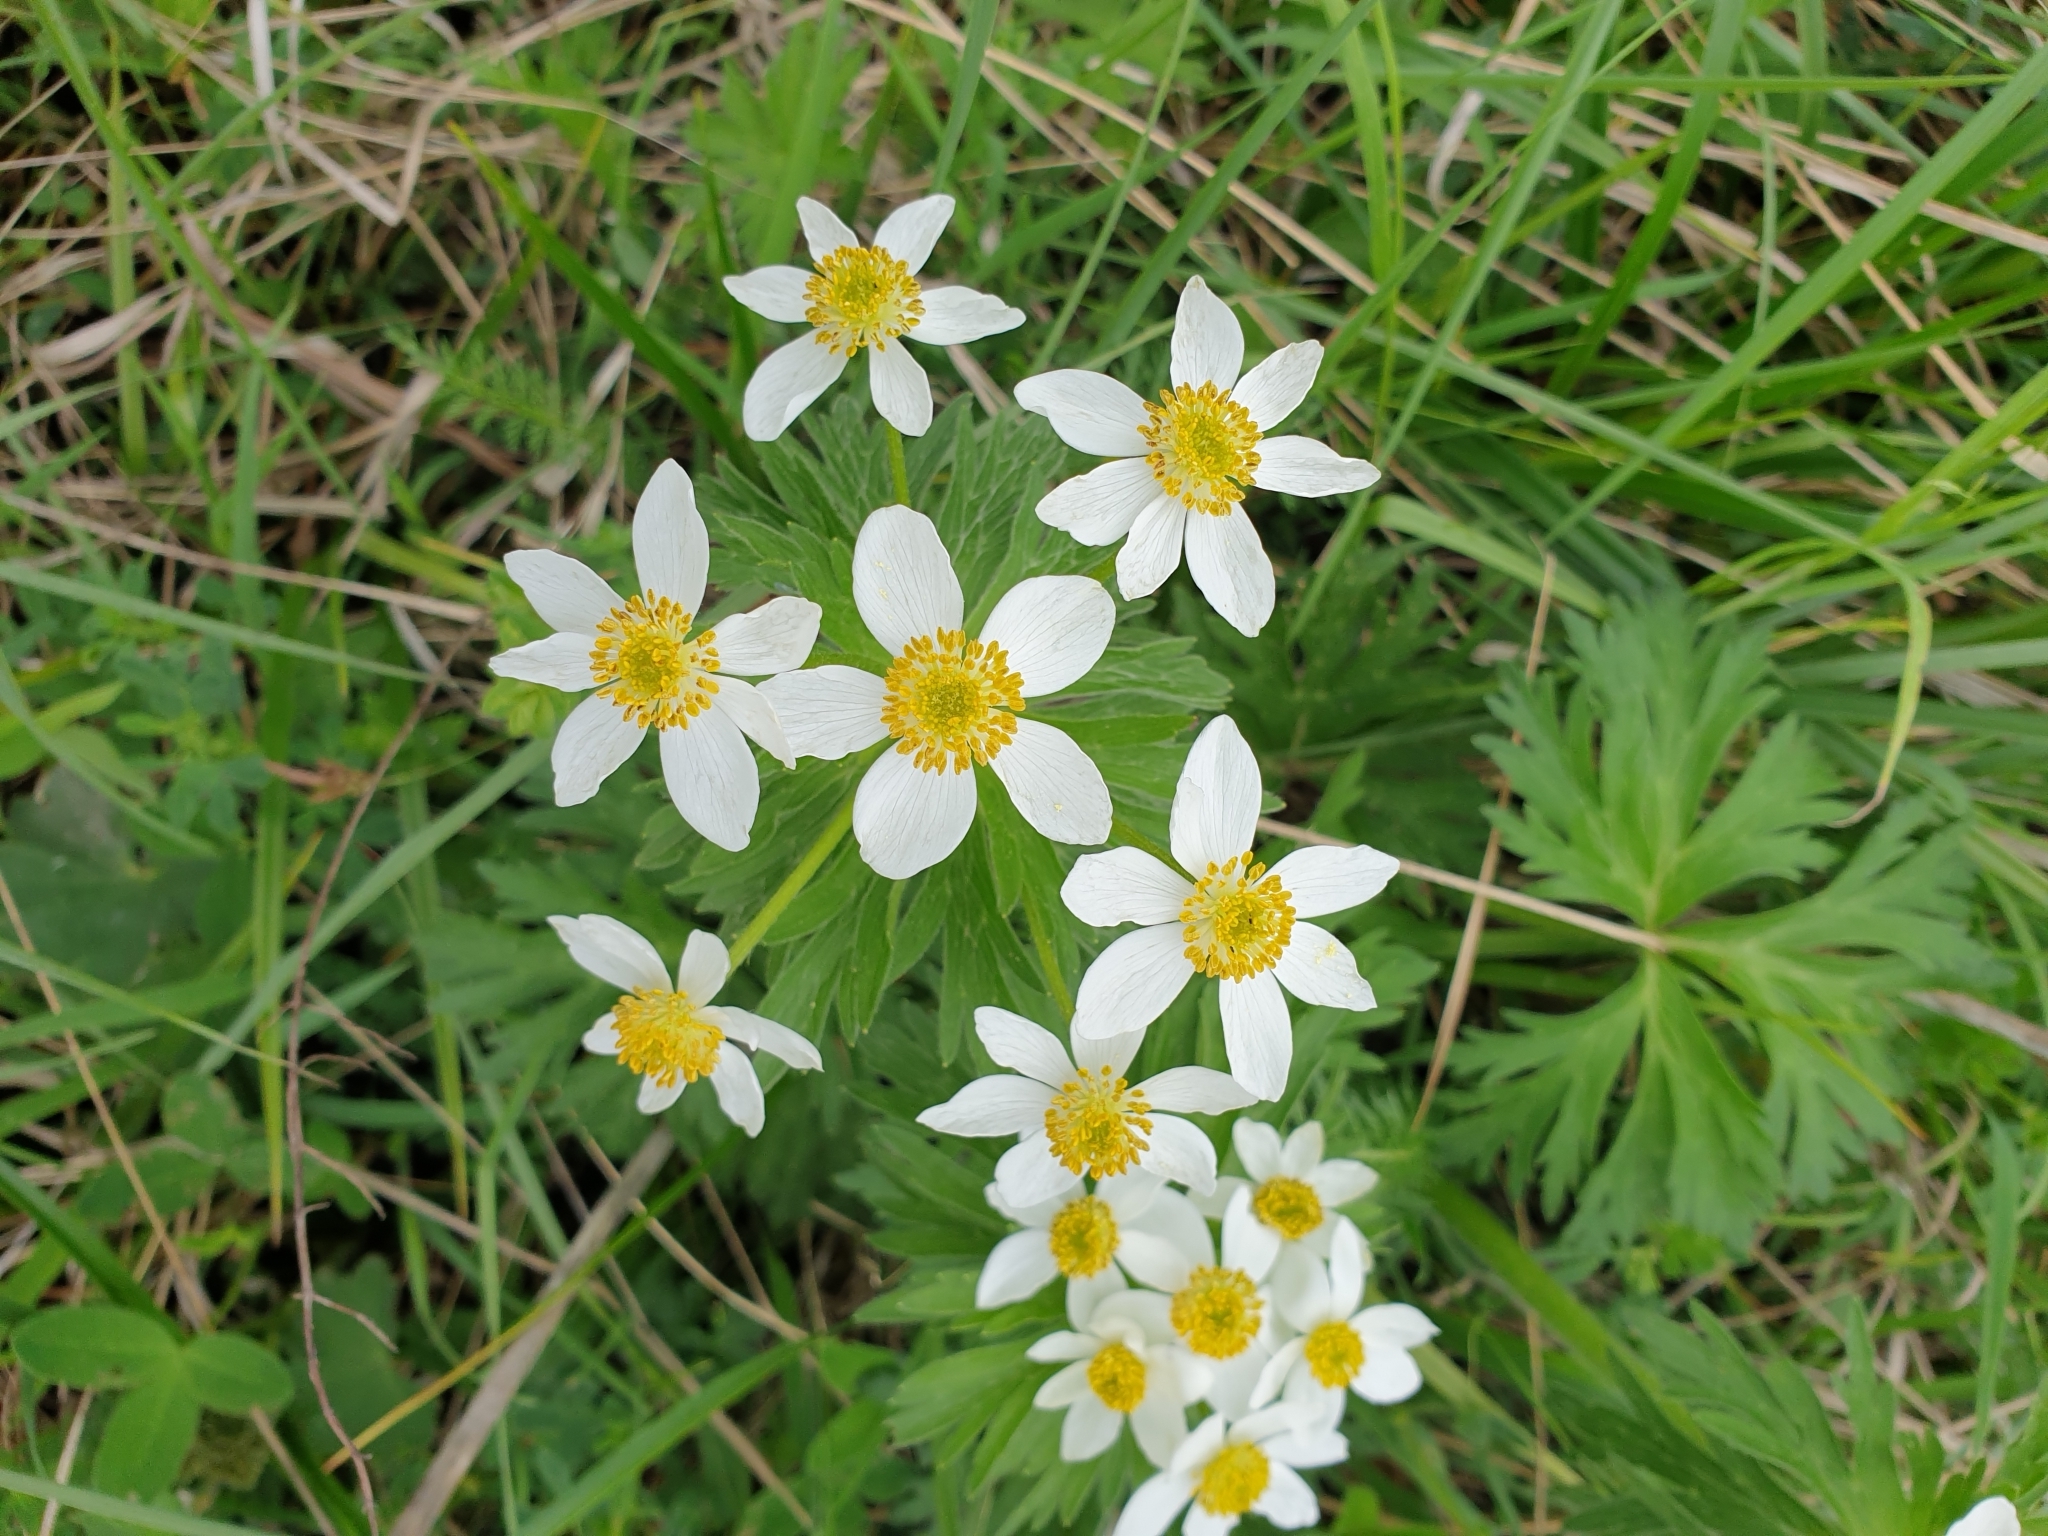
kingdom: Plantae
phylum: Tracheophyta
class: Magnoliopsida
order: Ranunculales
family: Ranunculaceae
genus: Anemonastrum
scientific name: Anemonastrum narcissiflorum
